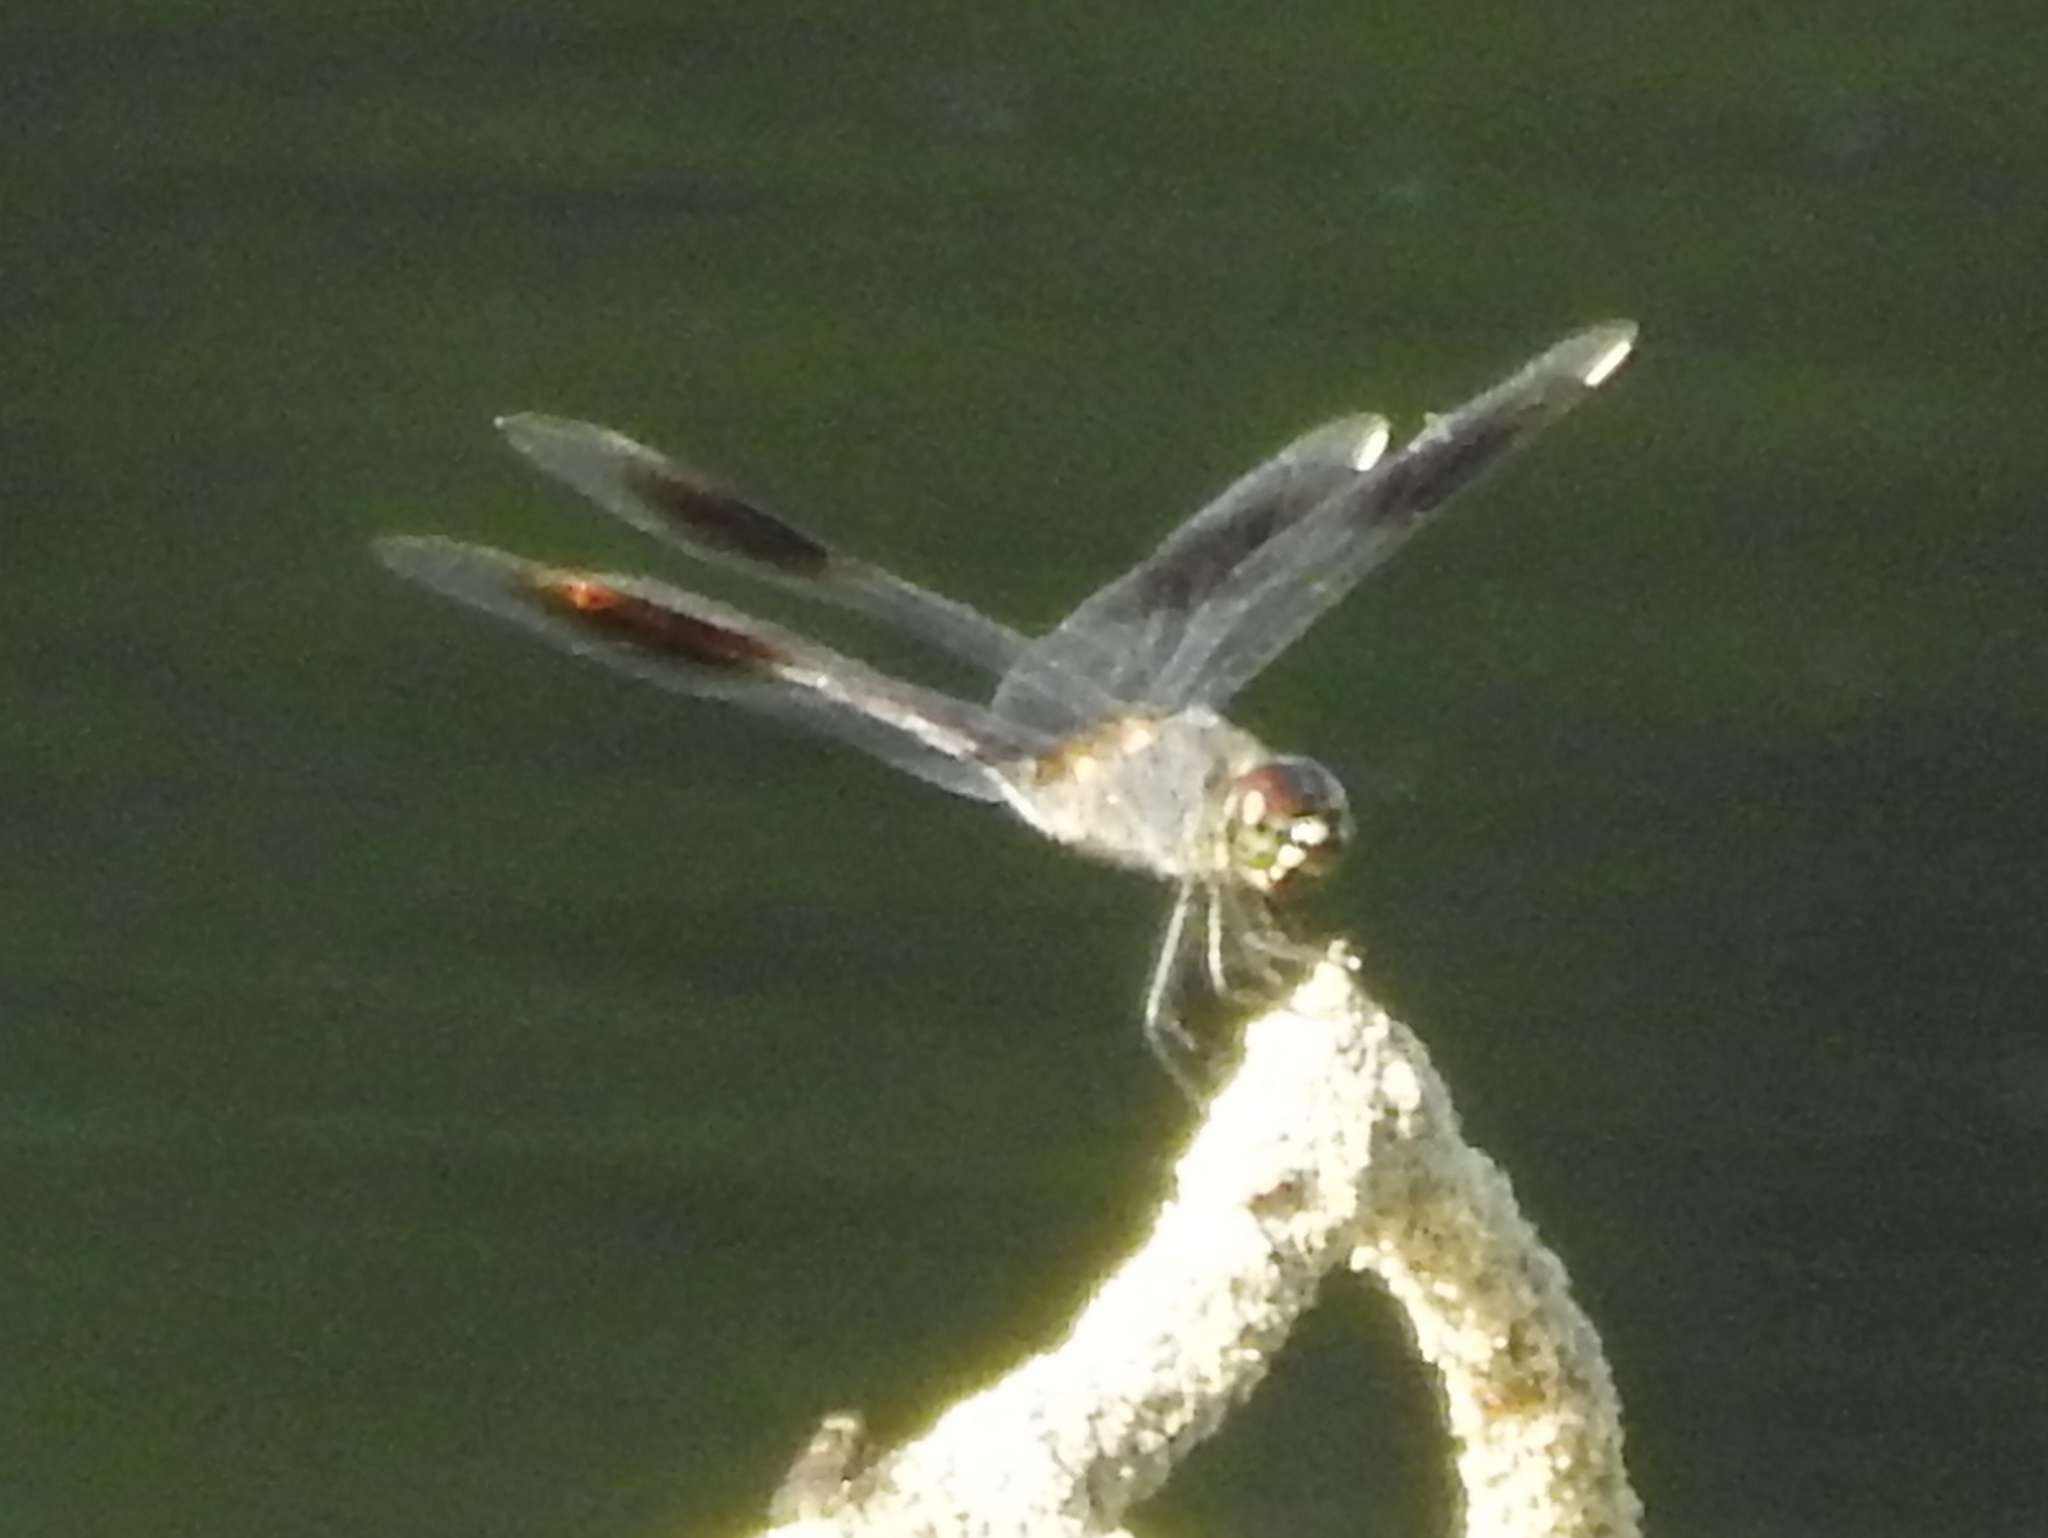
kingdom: Animalia
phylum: Arthropoda
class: Insecta
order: Odonata
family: Libellulidae
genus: Brachymesia
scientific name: Brachymesia gravida
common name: Four-spotted pennant
